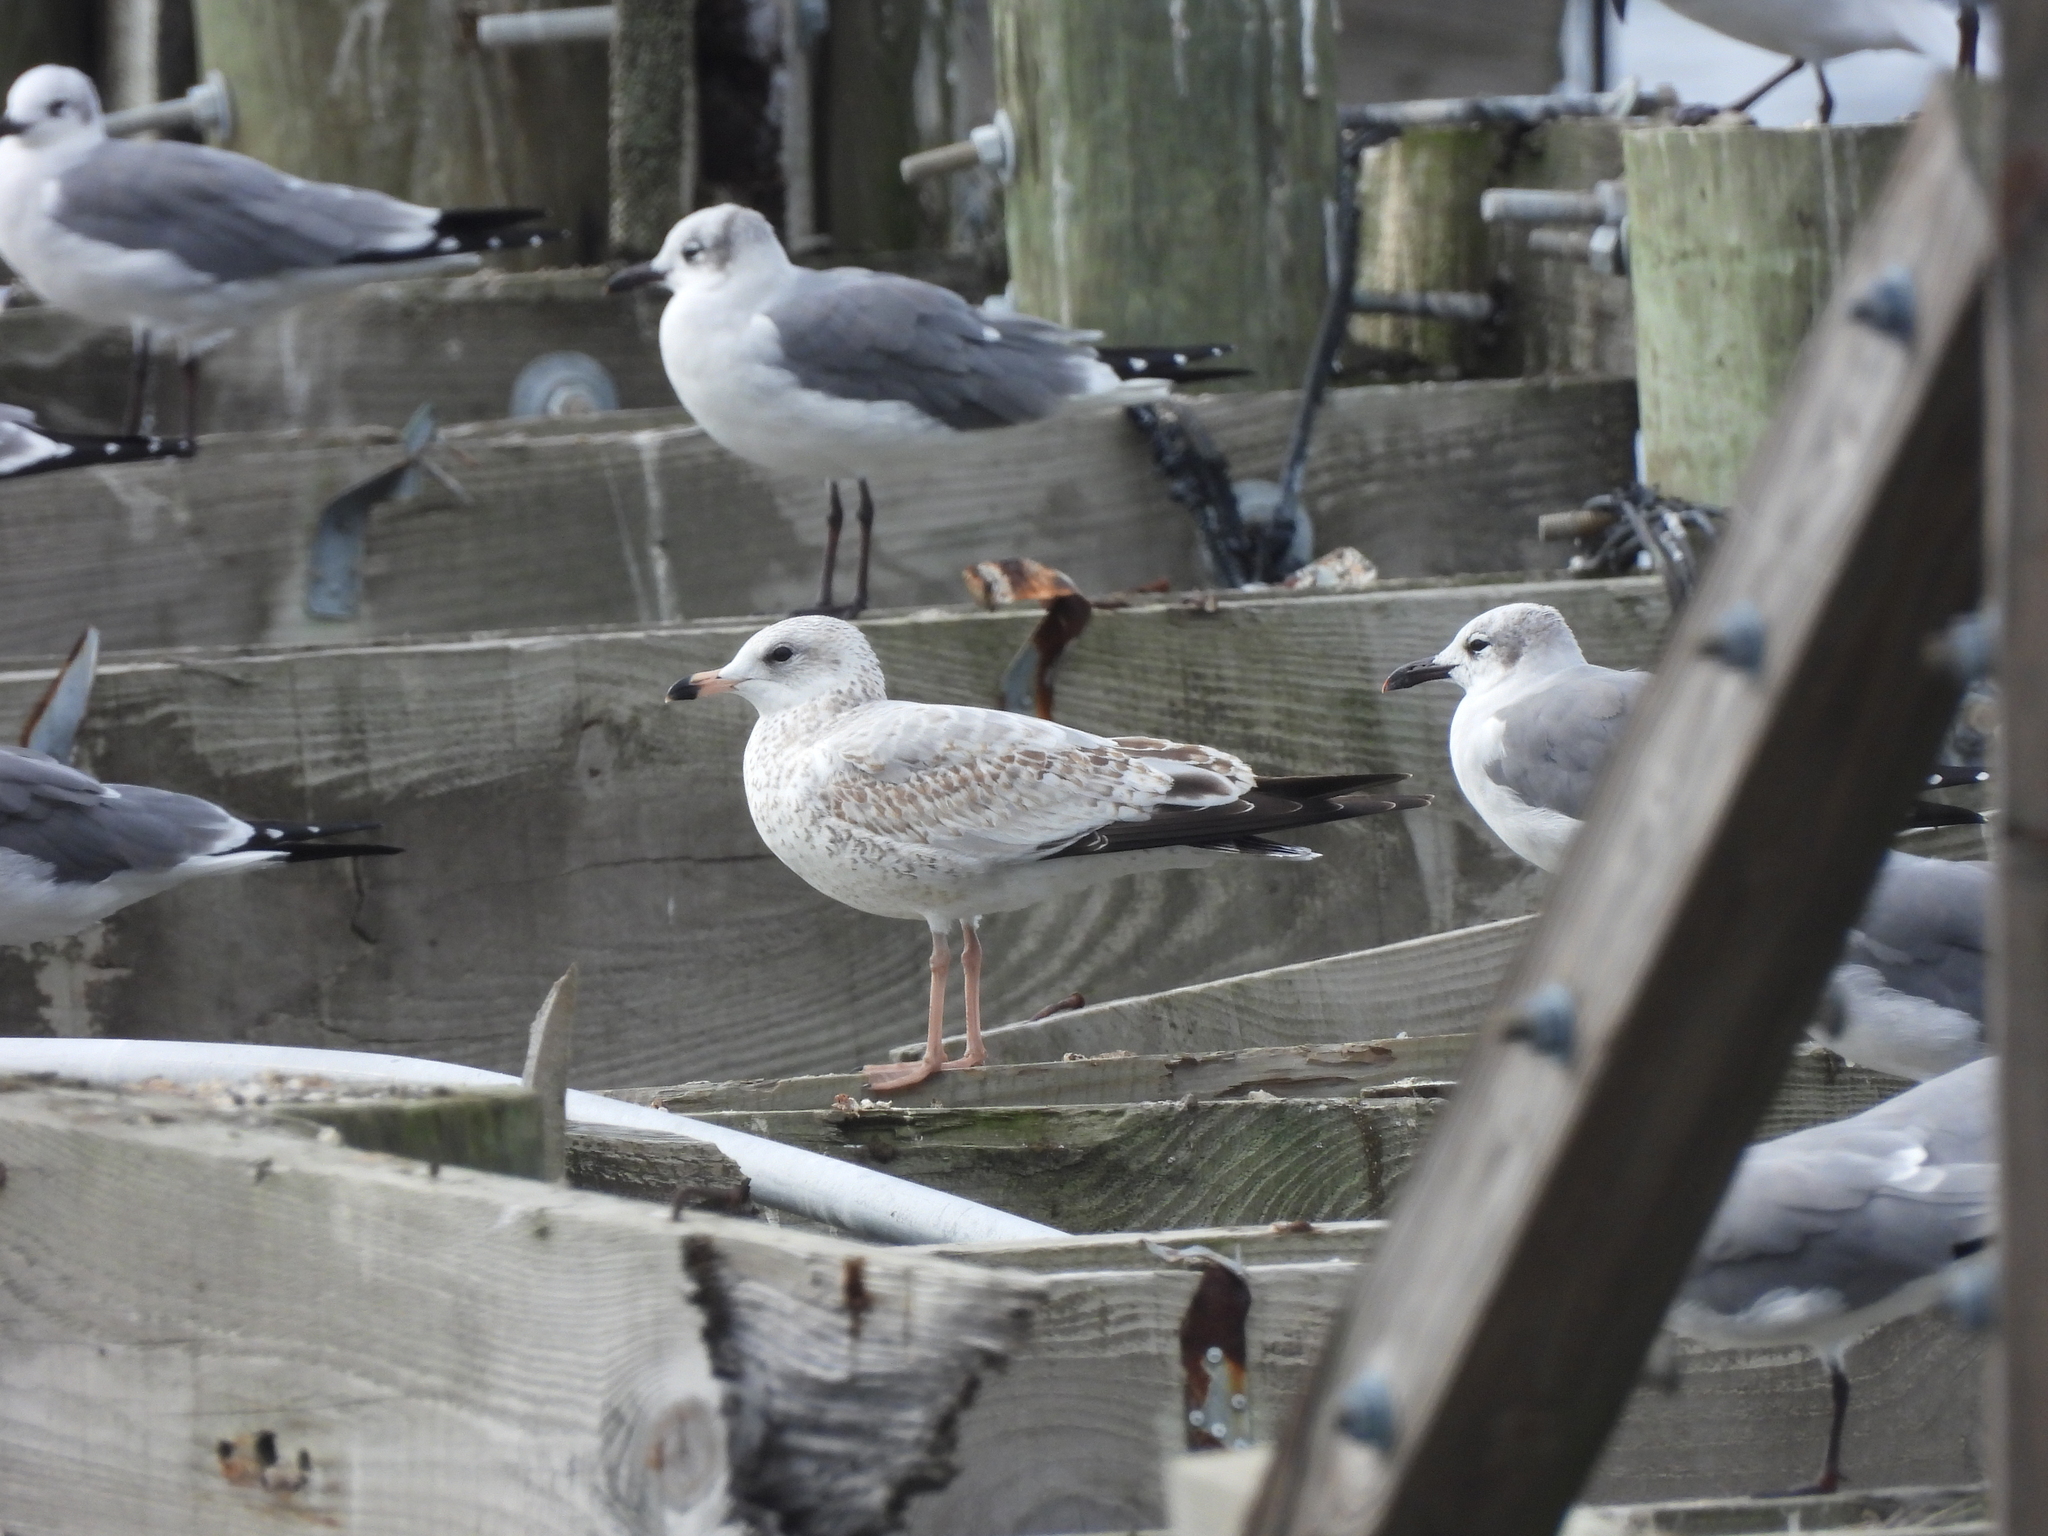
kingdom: Animalia
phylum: Chordata
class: Aves
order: Charadriiformes
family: Laridae
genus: Larus
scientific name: Larus delawarensis
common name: Ring-billed gull
